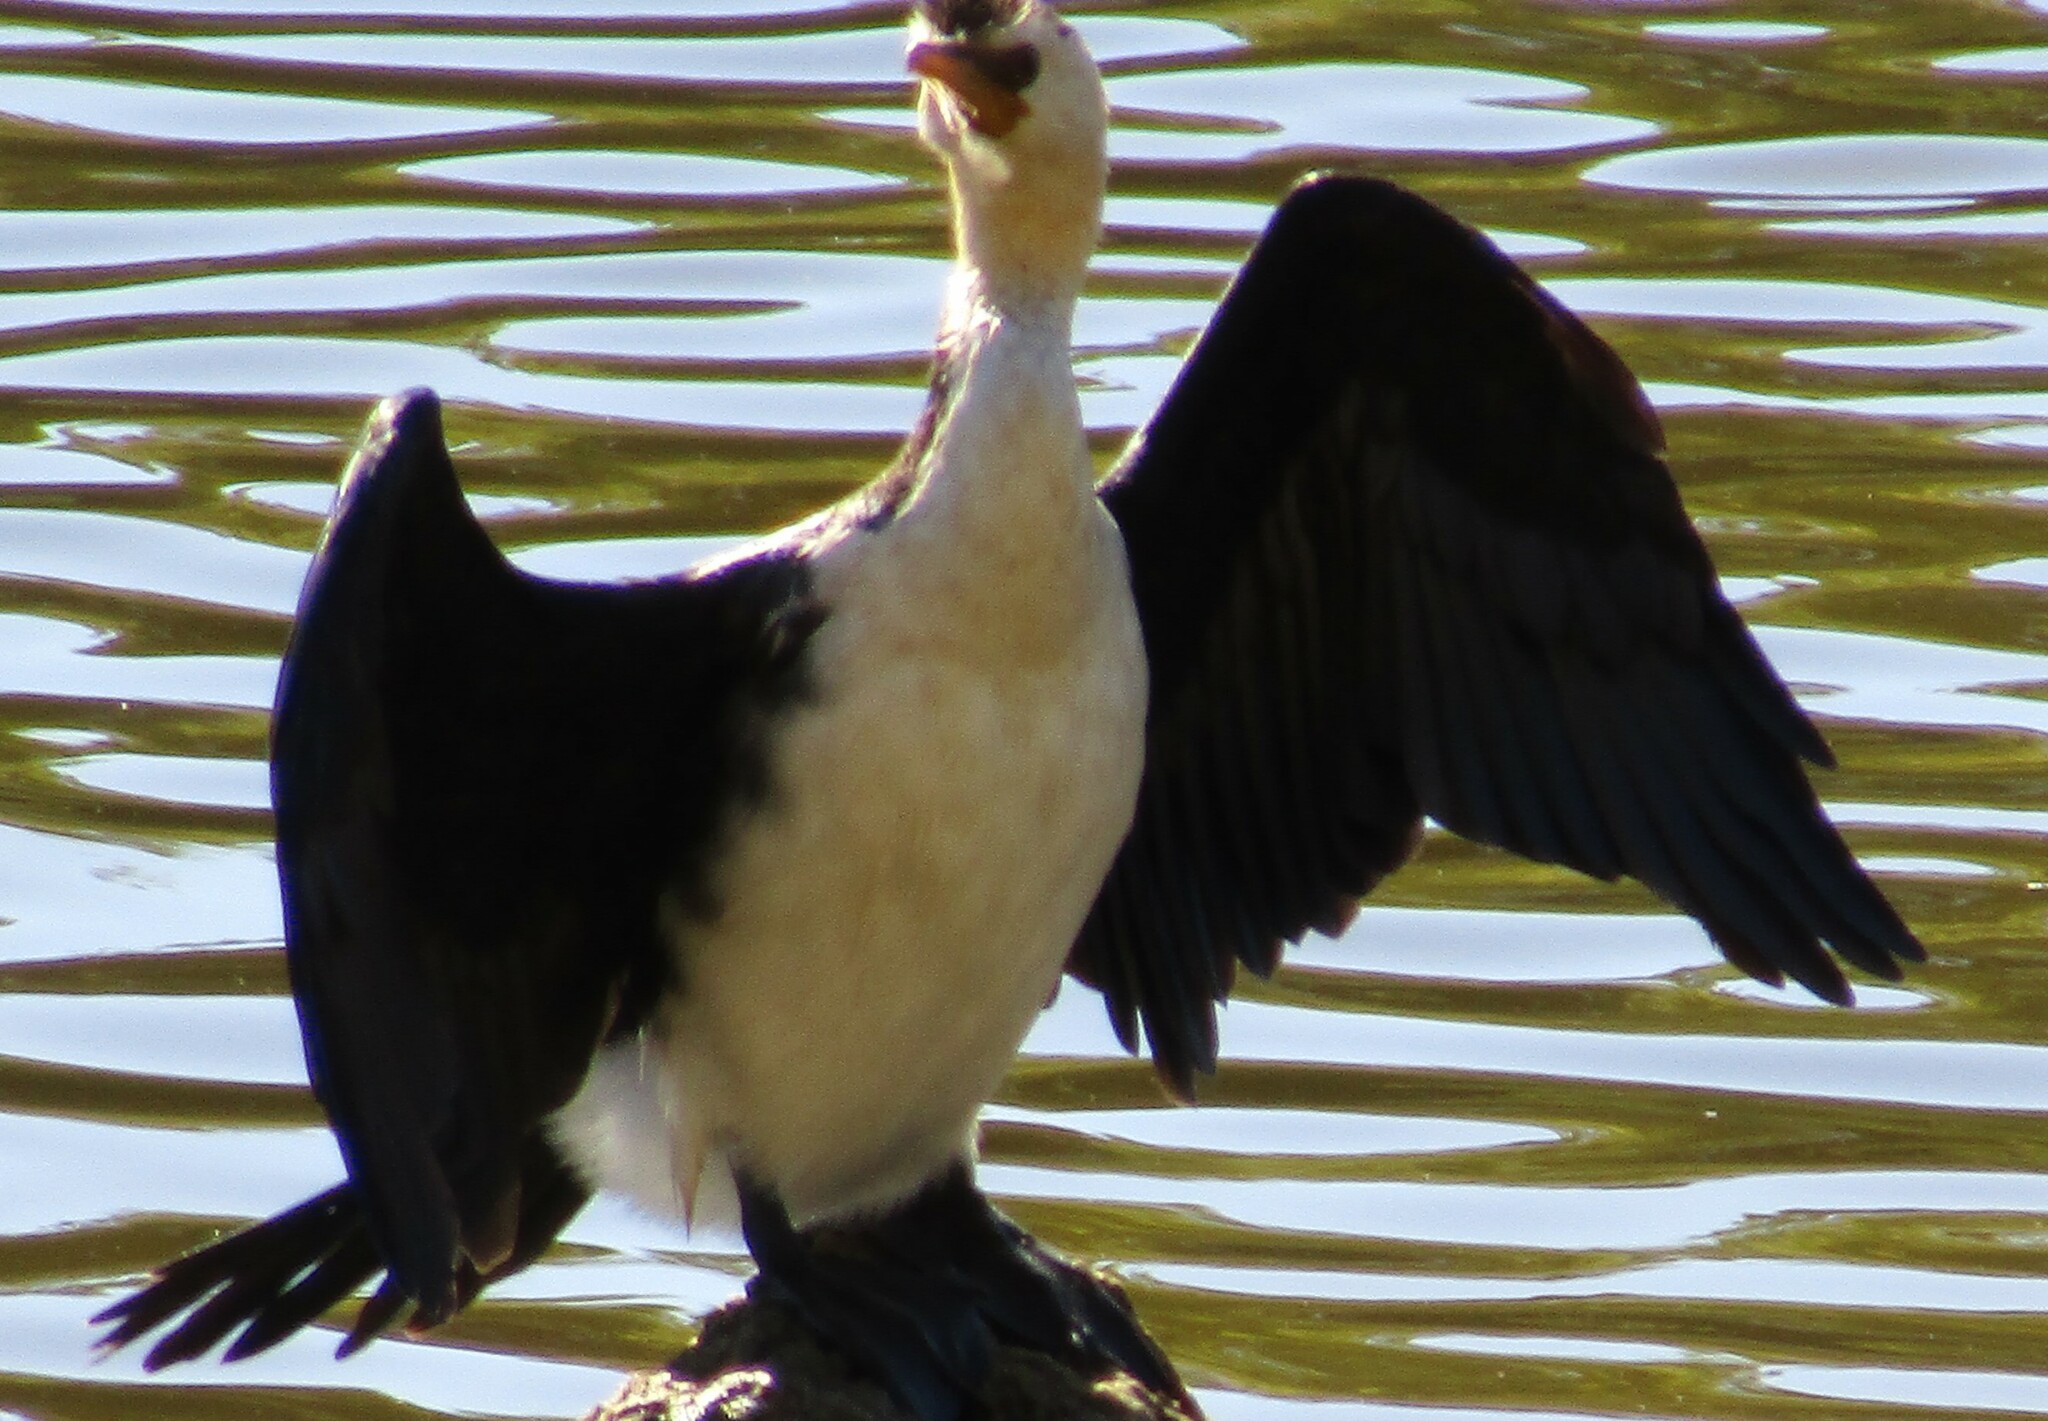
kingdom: Animalia
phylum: Chordata
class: Aves
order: Suliformes
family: Phalacrocoracidae
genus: Microcarbo
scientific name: Microcarbo melanoleucos
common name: Little pied cormorant
